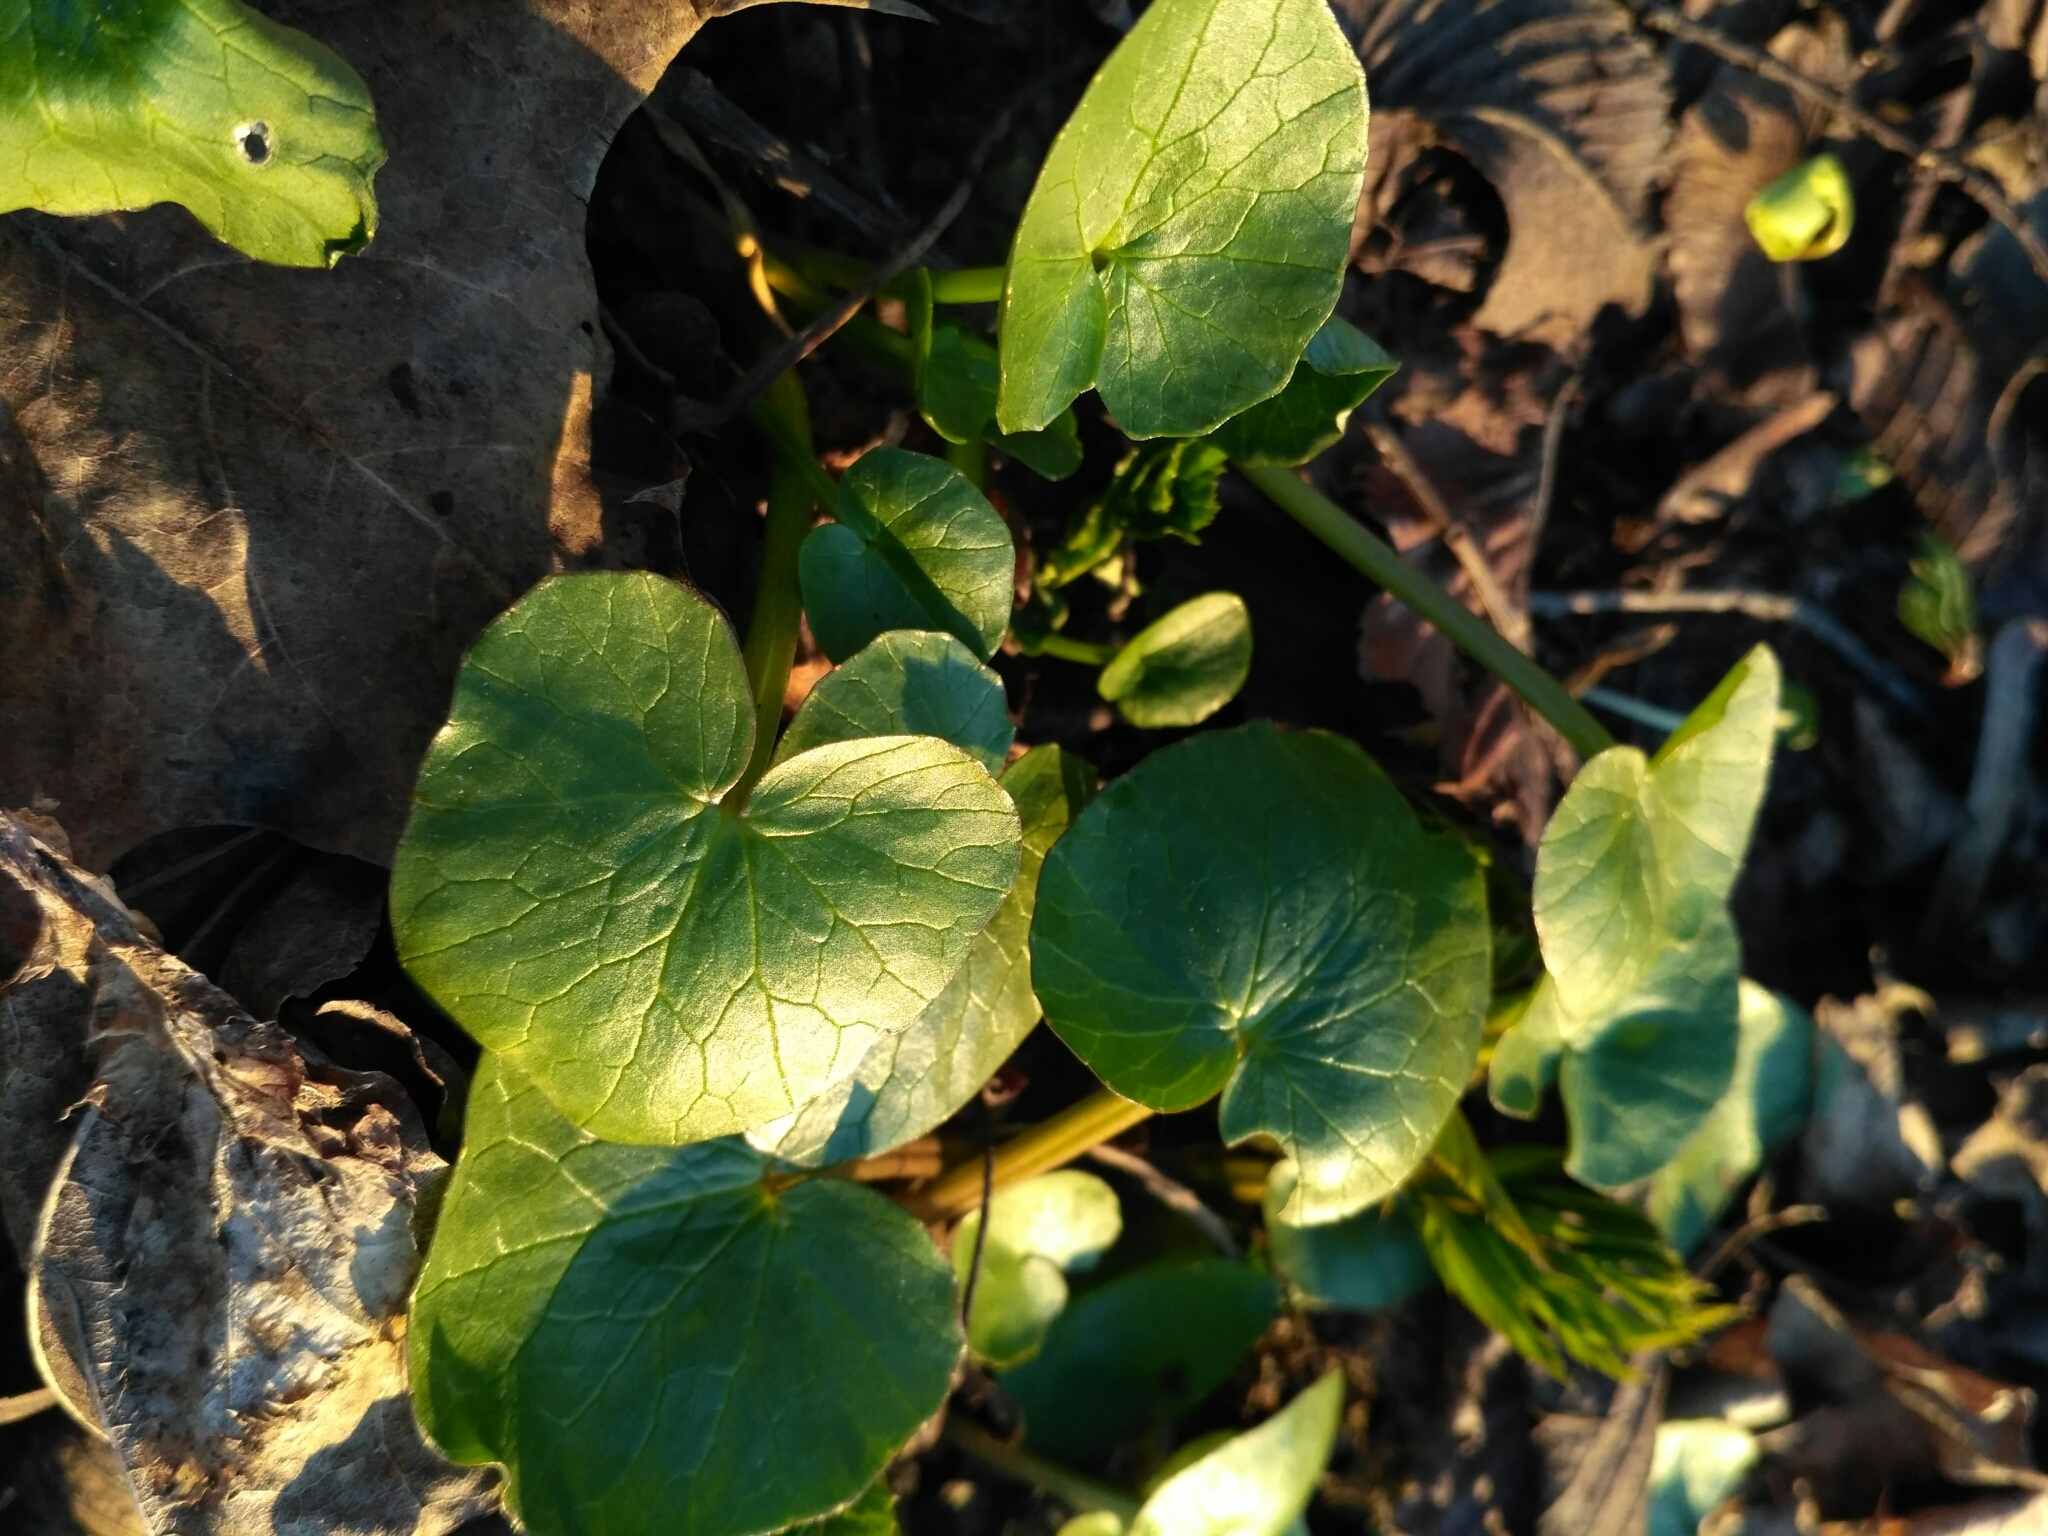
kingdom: Plantae
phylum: Tracheophyta
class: Magnoliopsida
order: Ranunculales
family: Ranunculaceae
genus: Ficaria
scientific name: Ficaria verna
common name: Lesser celandine
